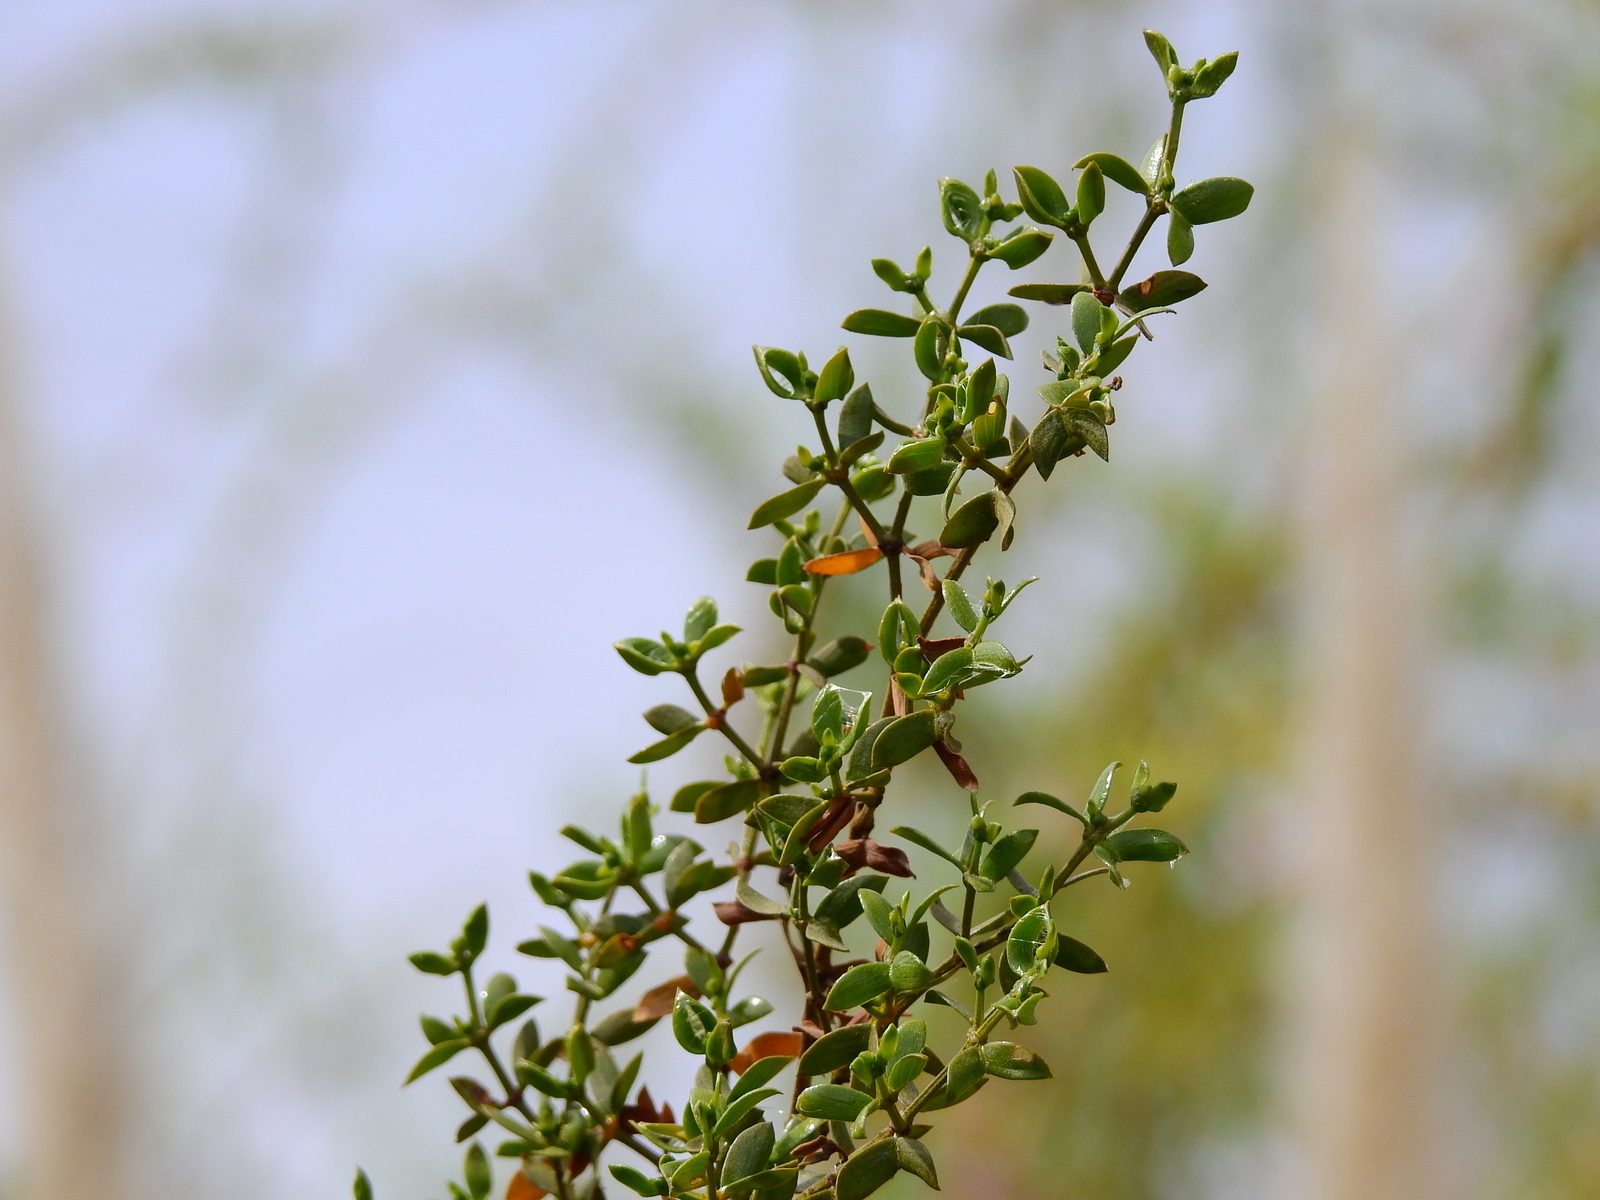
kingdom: Plantae
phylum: Tracheophyta
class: Magnoliopsida
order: Zygophyllales
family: Zygophyllaceae
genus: Larrea
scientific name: Larrea divaricata
